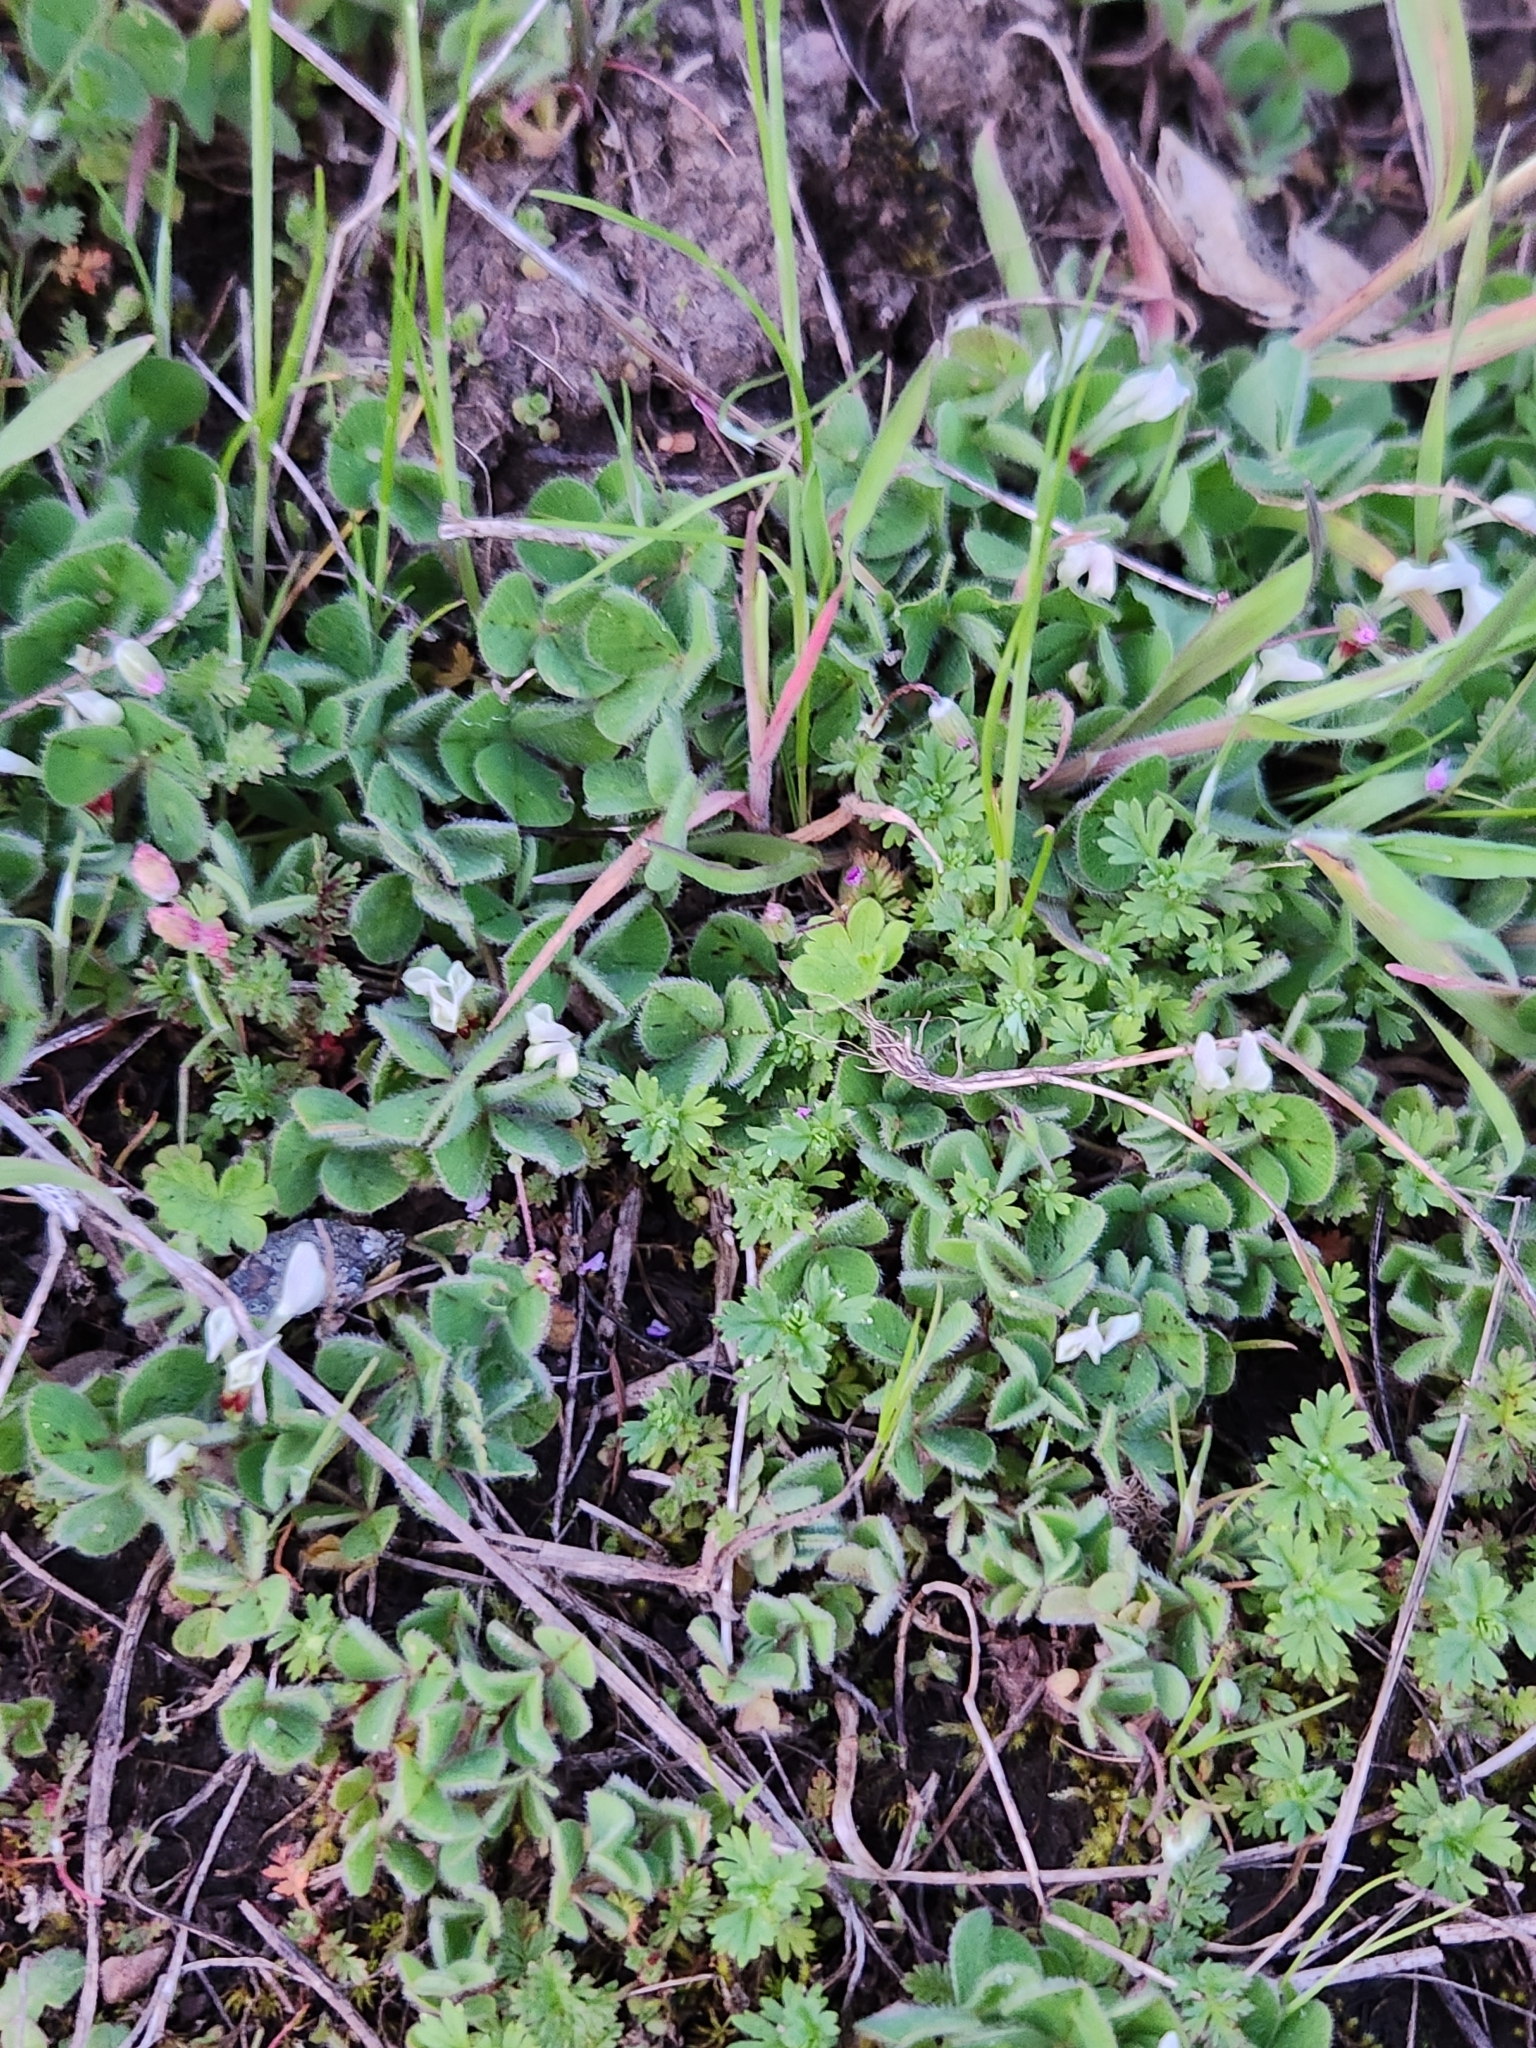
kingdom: Plantae
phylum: Tracheophyta
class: Magnoliopsida
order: Fabales
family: Fabaceae
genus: Trifolium
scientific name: Trifolium subterraneum
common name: Subterranean clover
